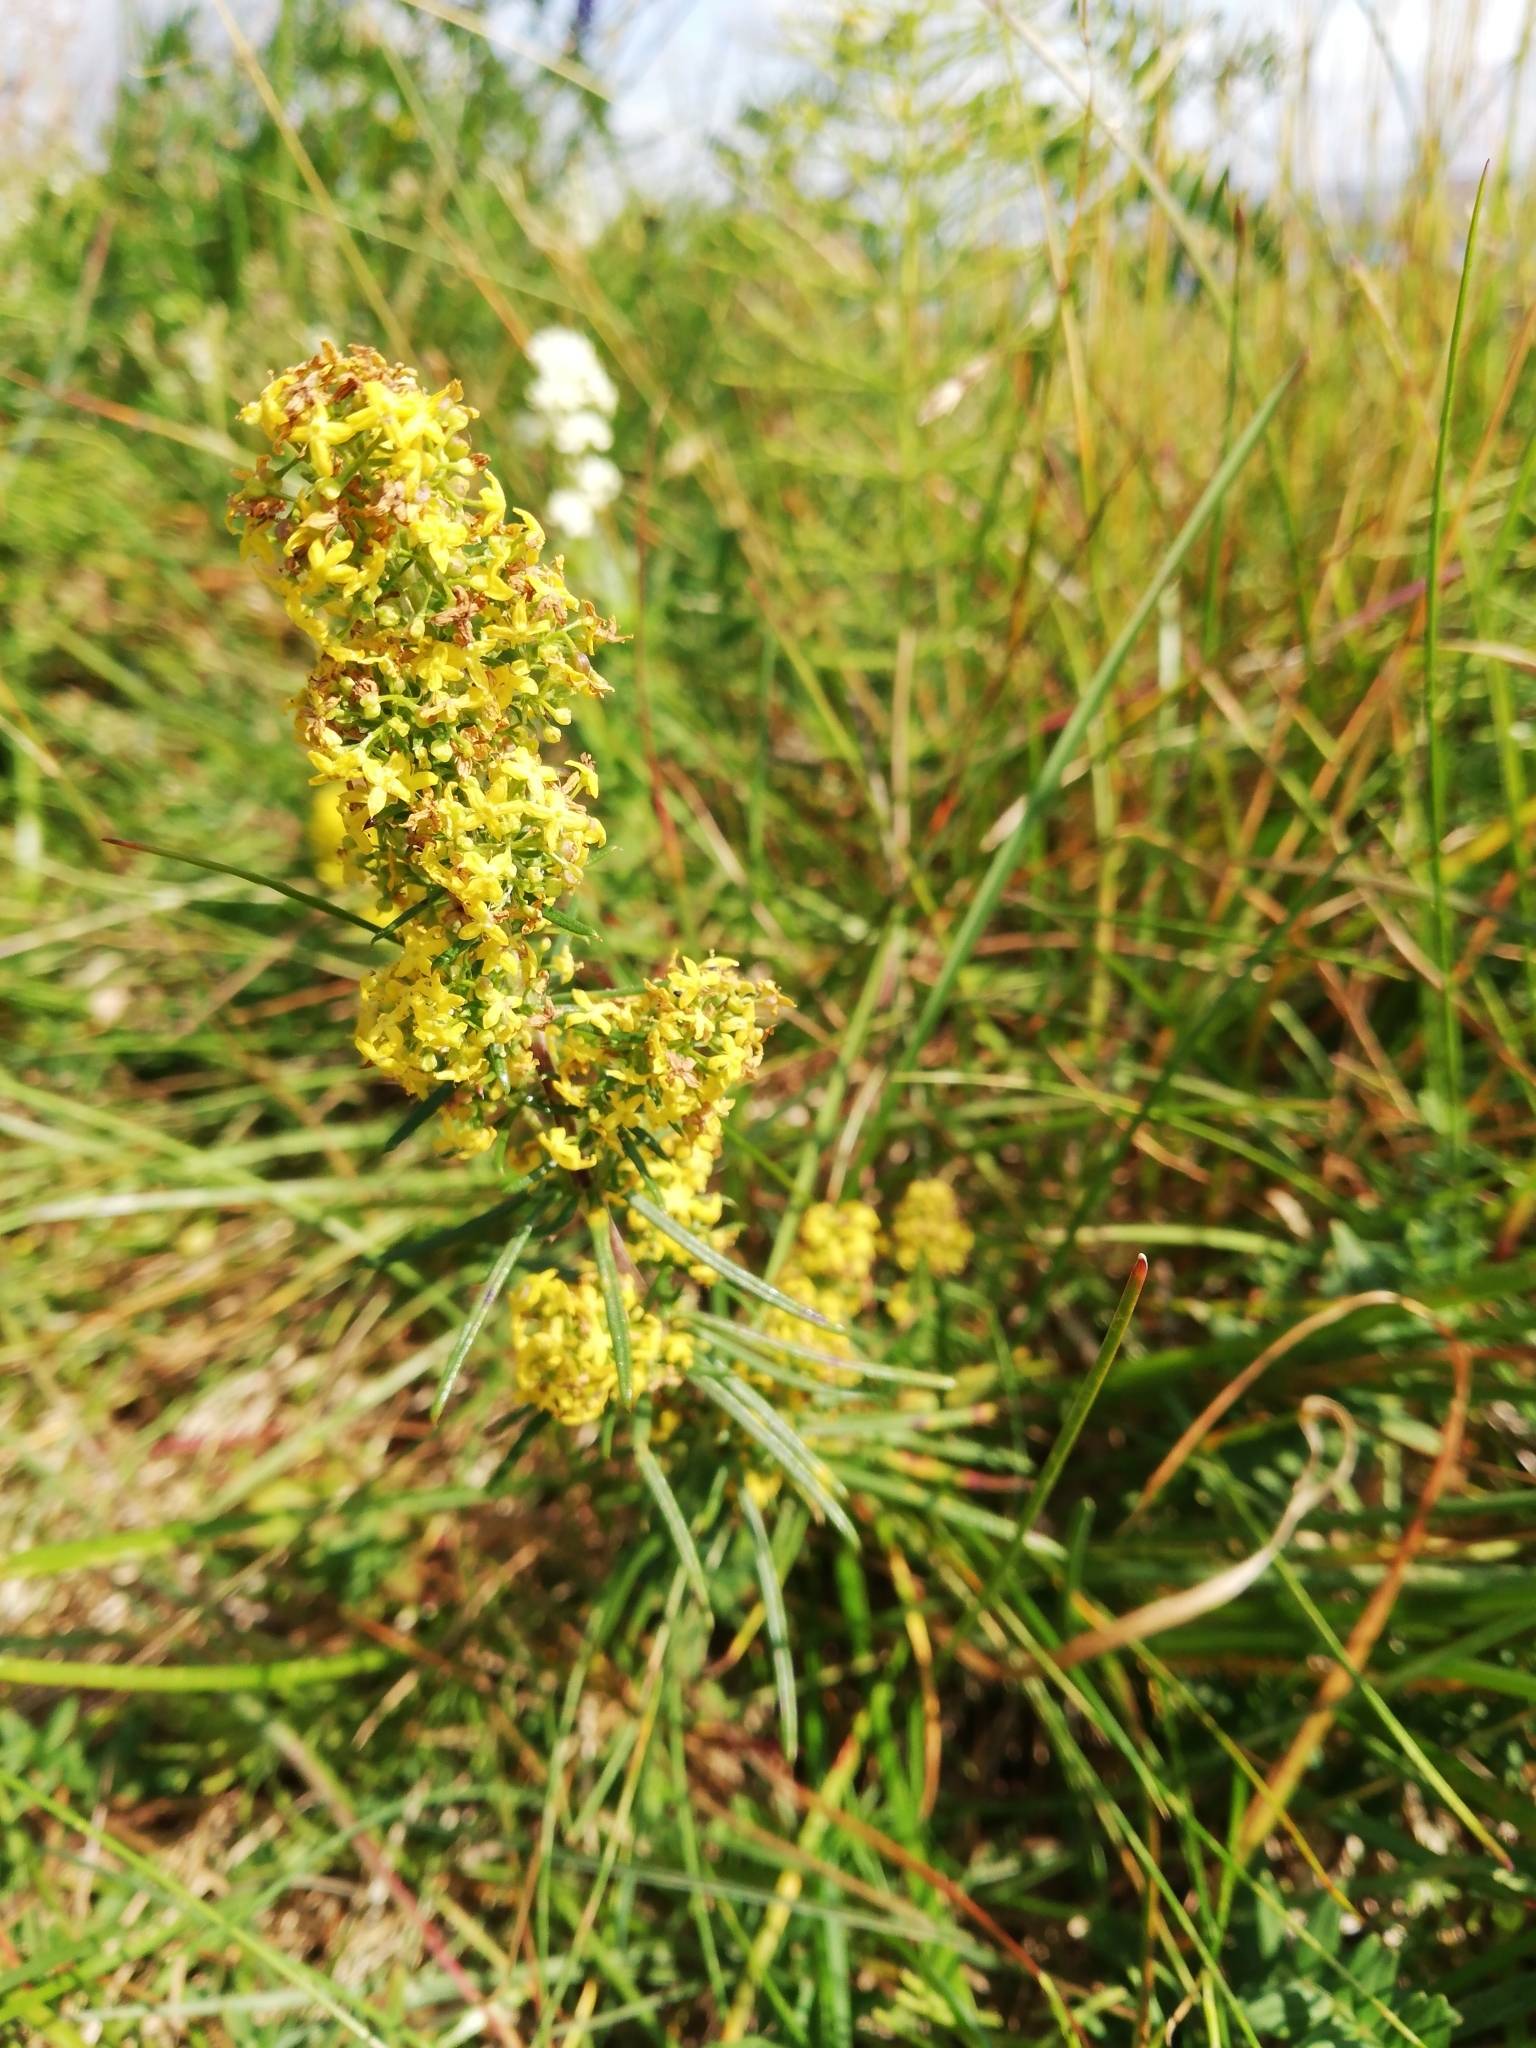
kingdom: Plantae
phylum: Tracheophyta
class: Magnoliopsida
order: Gentianales
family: Rubiaceae
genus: Galium
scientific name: Galium verum
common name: Lady's bedstraw
